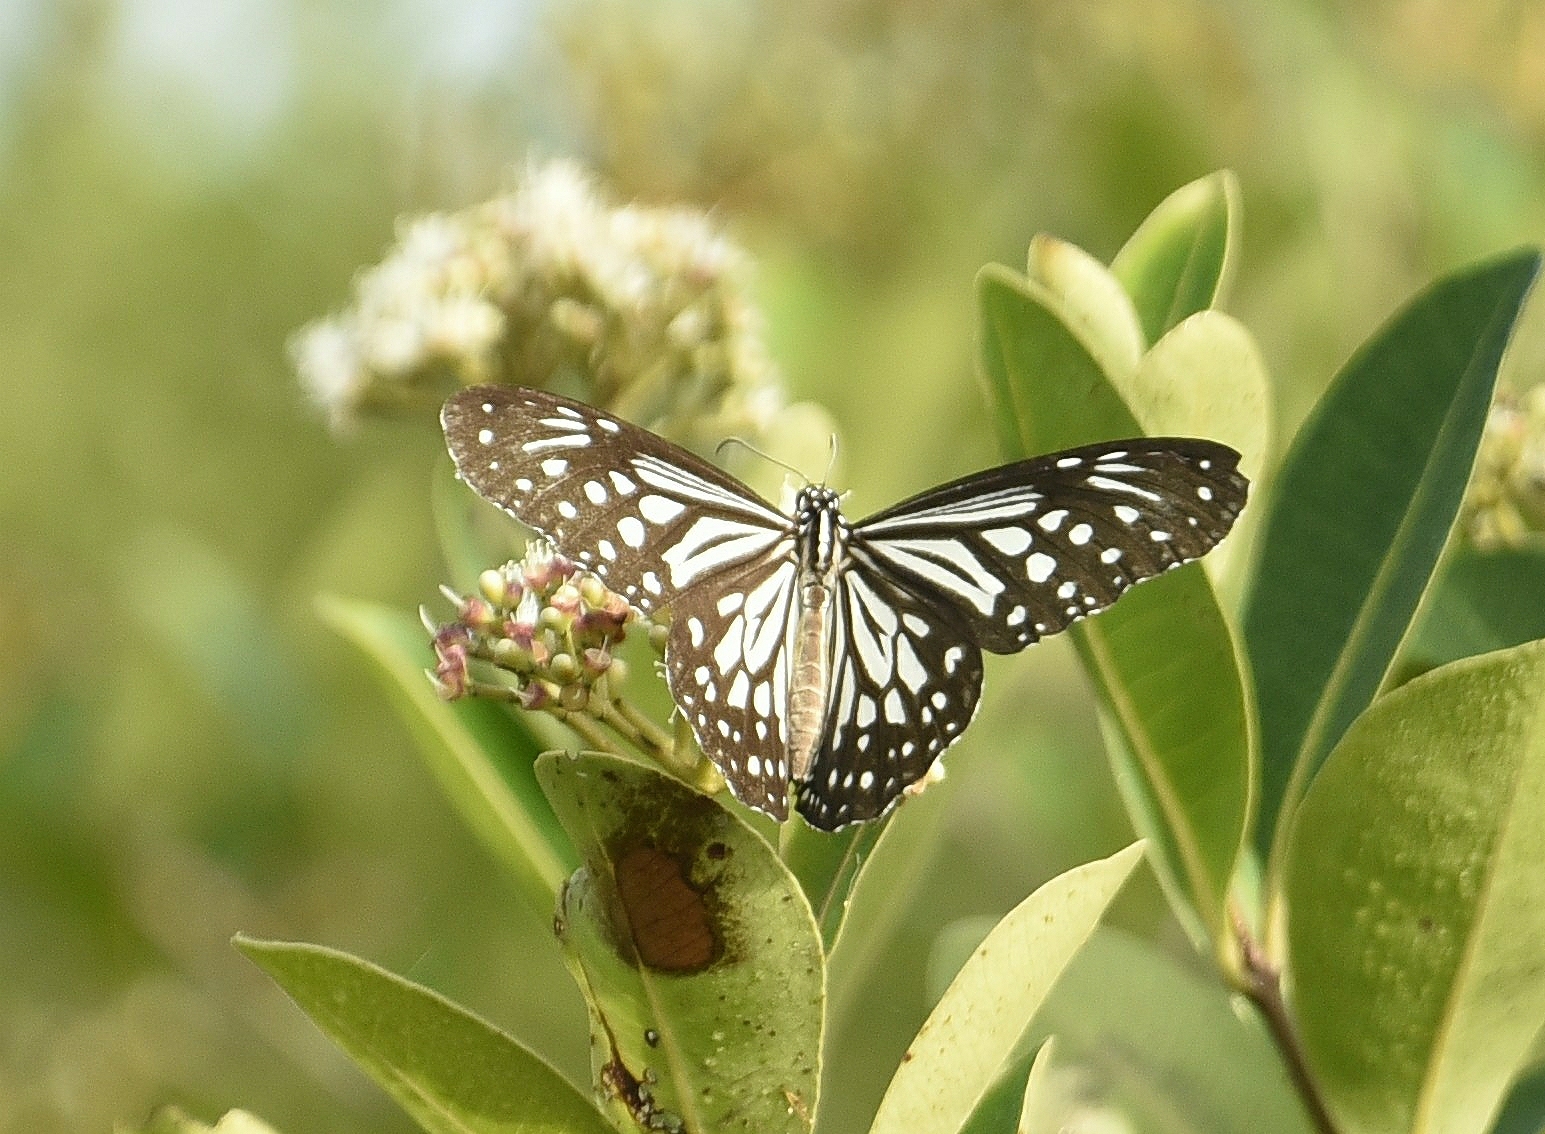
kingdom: Animalia
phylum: Arthropoda
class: Insecta
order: Lepidoptera
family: Nymphalidae
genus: Parantica
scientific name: Parantica aglea
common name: Glassy tiger
